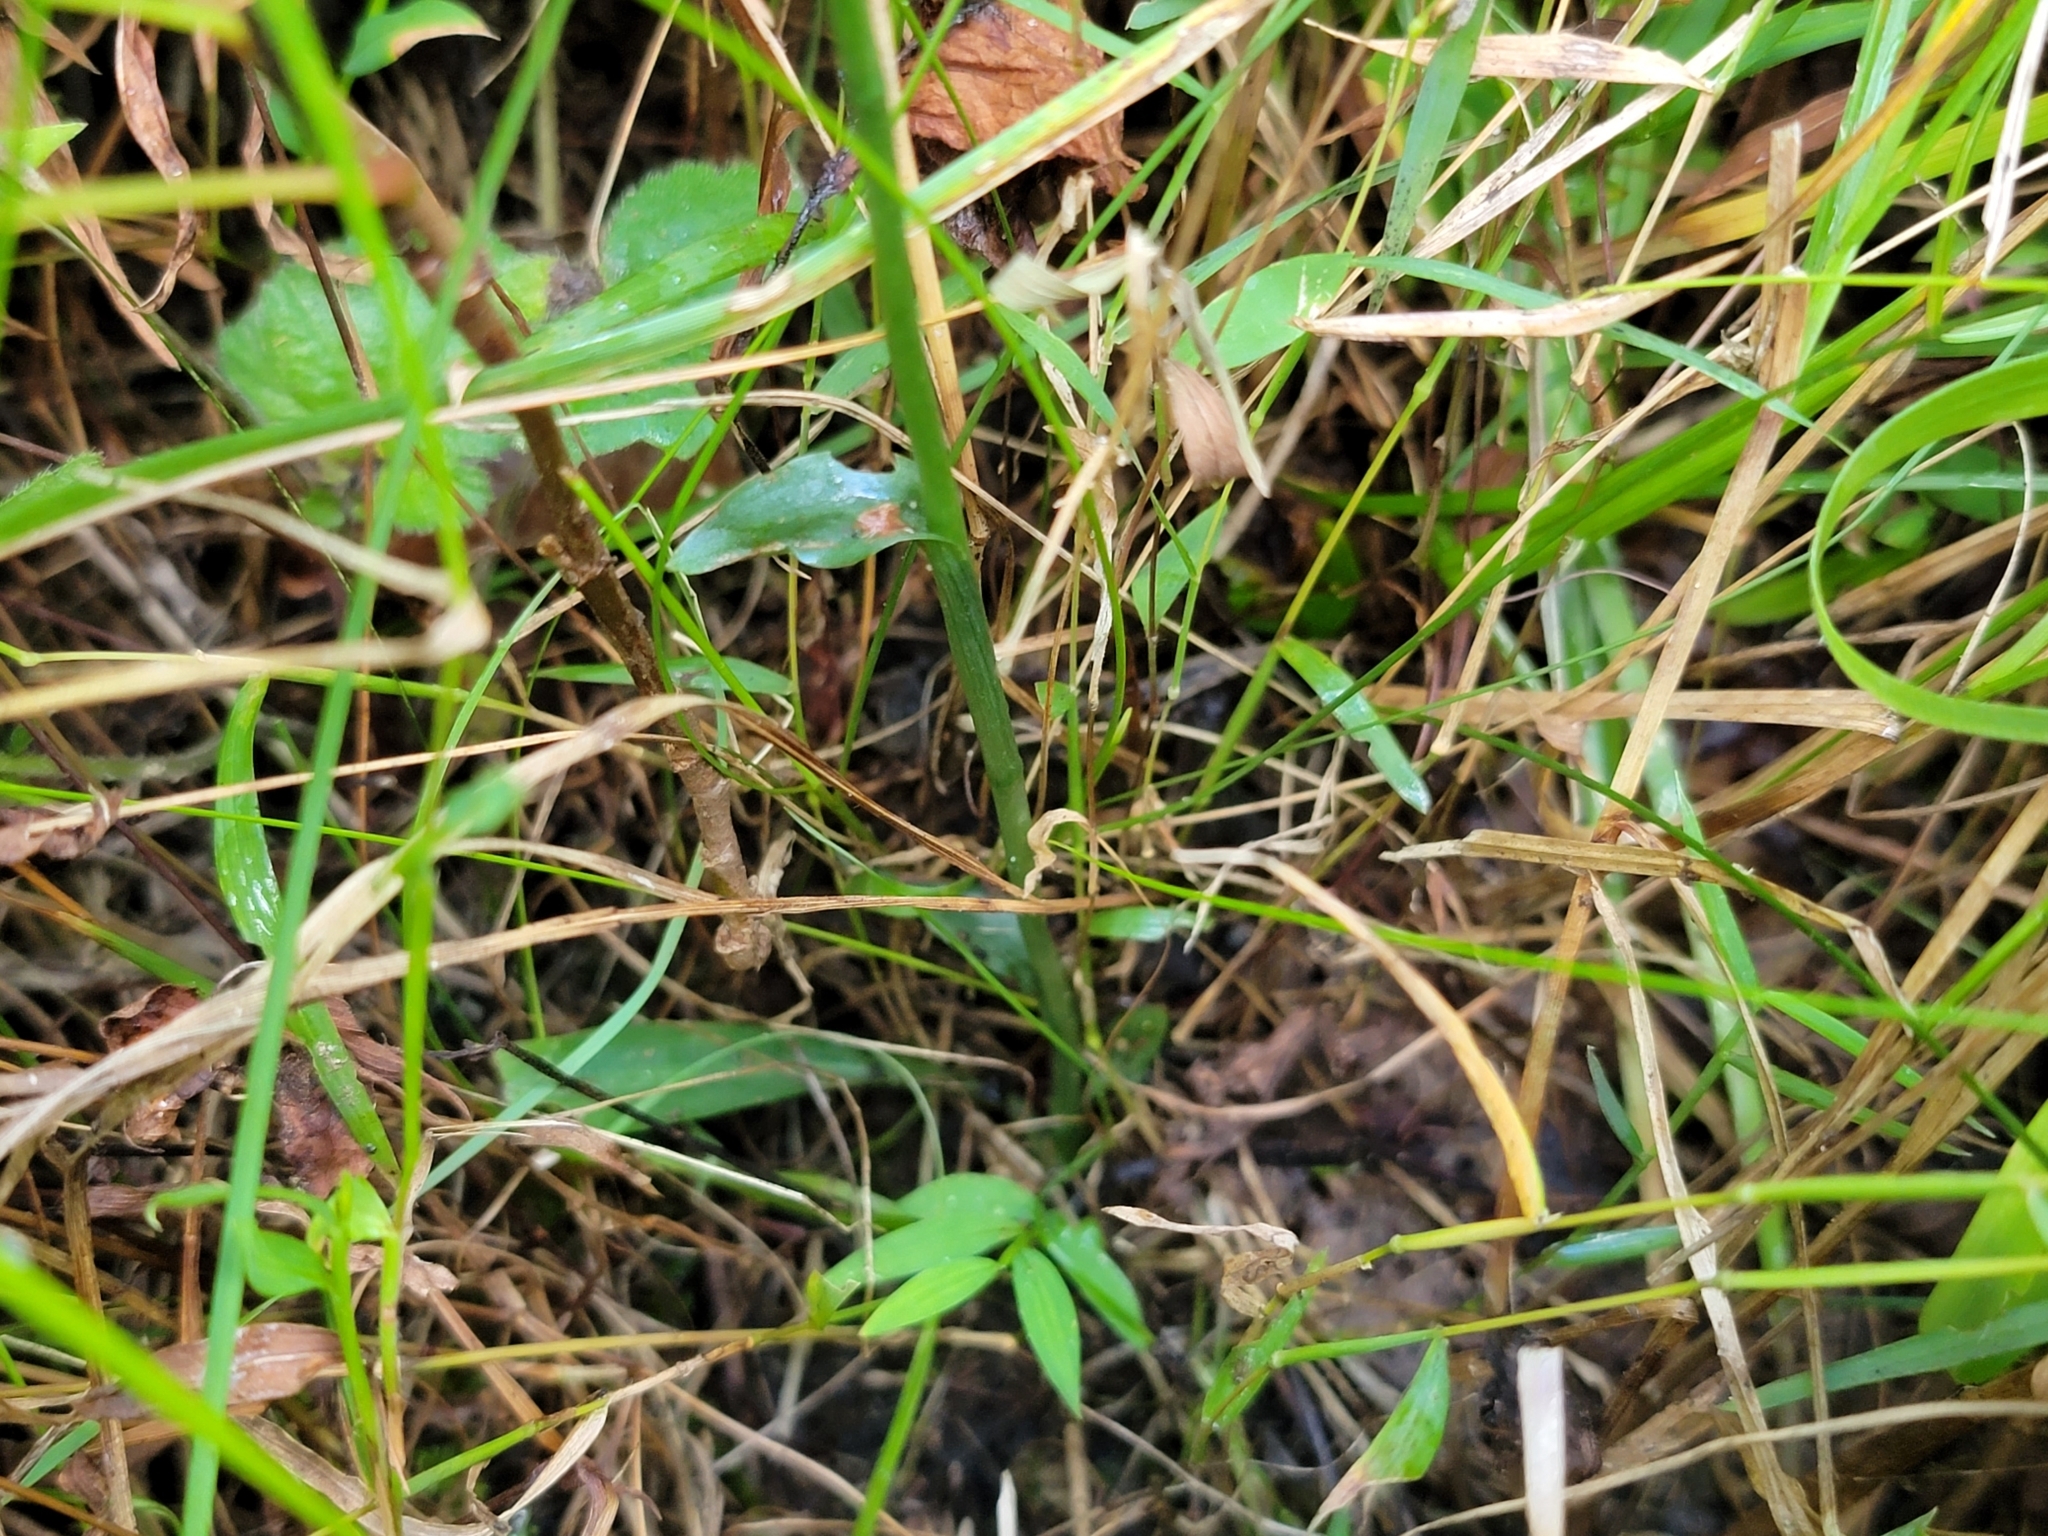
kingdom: Plantae
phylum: Tracheophyta
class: Liliopsida
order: Asparagales
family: Orchidaceae
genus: Spiranthes
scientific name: Spiranthes ovalis
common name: October ladies'-tresses
